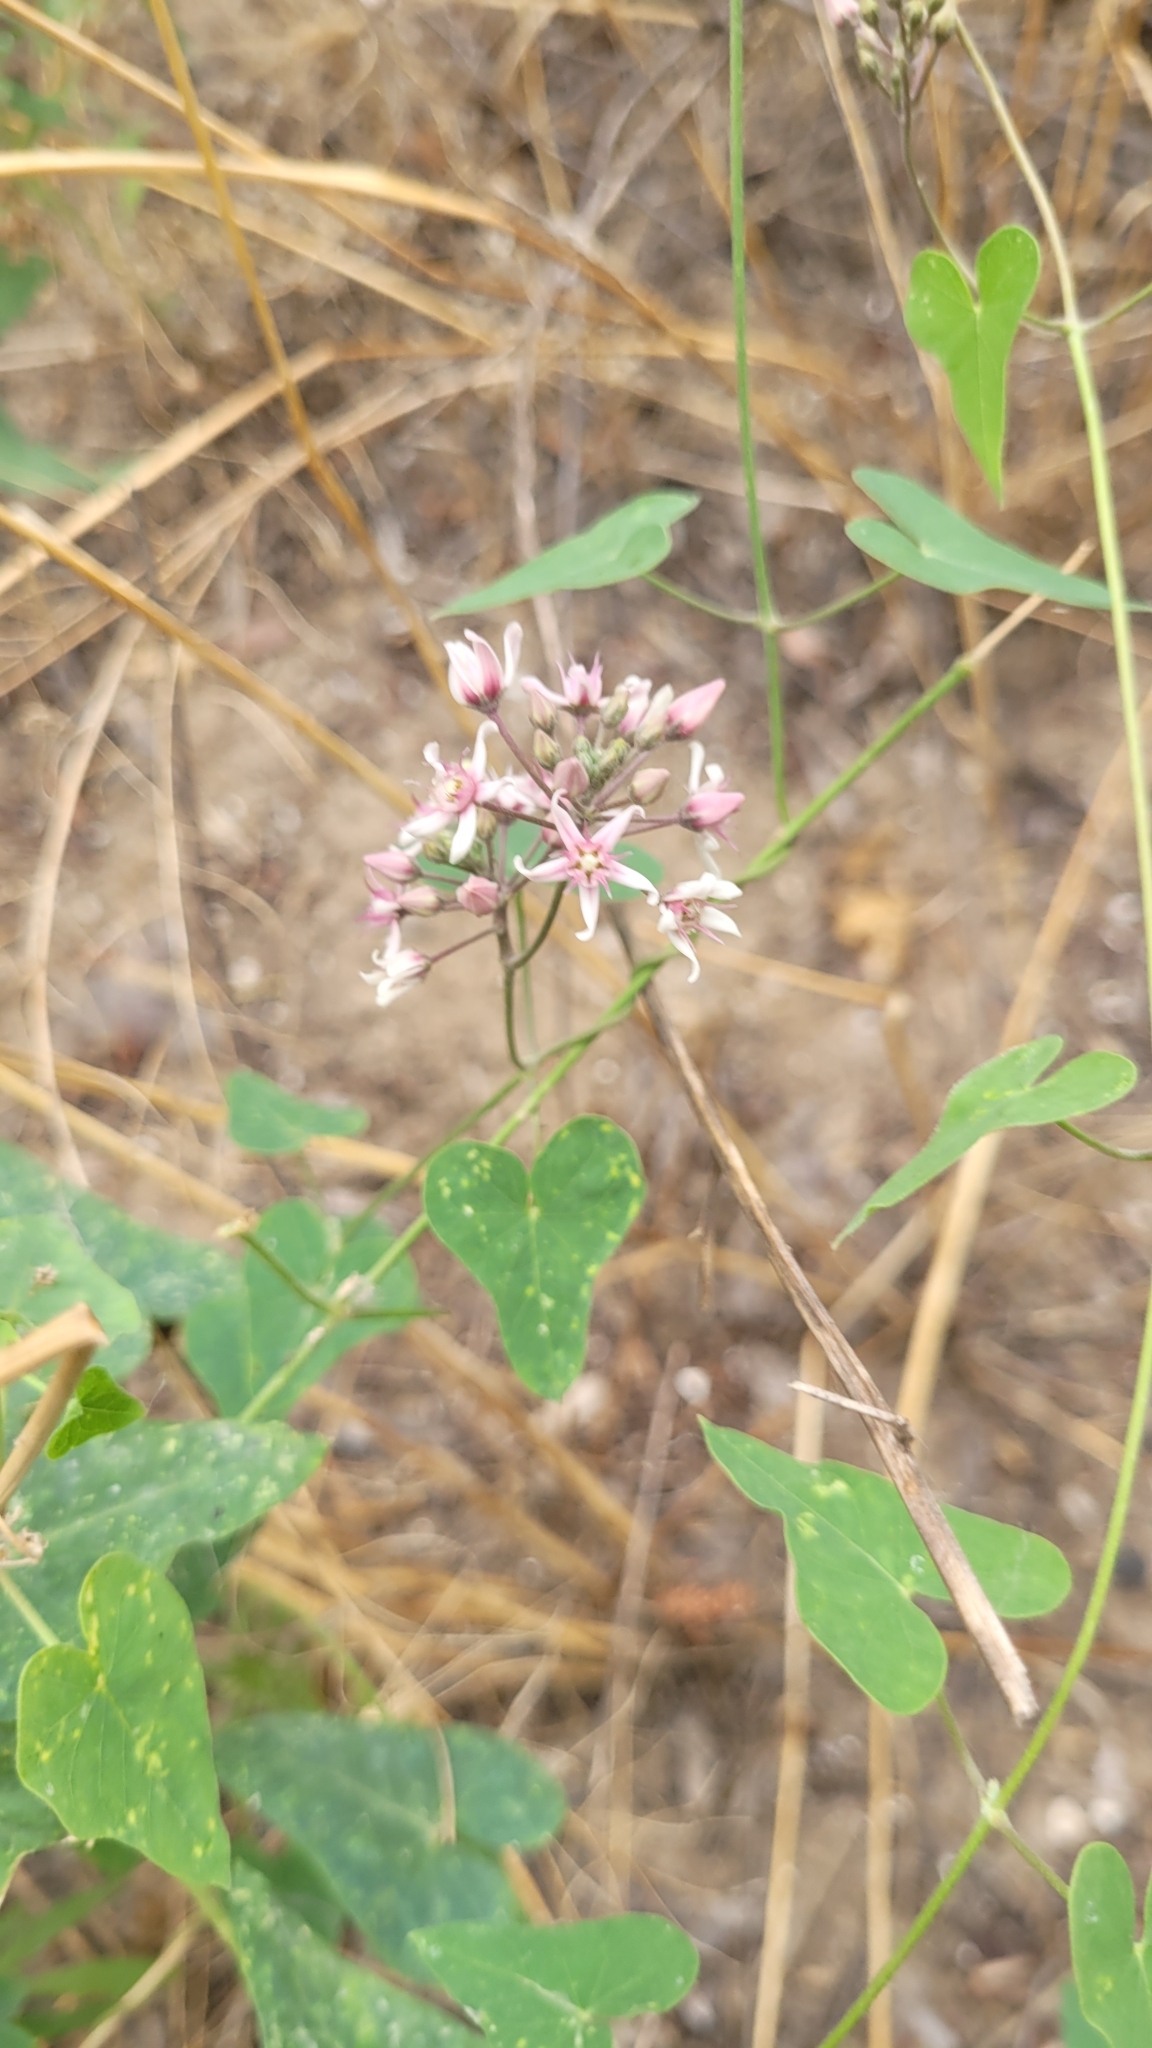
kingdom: Plantae
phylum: Tracheophyta
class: Magnoliopsida
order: Gentianales
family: Apocynaceae
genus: Cynanchum
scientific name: Cynanchum acutum
